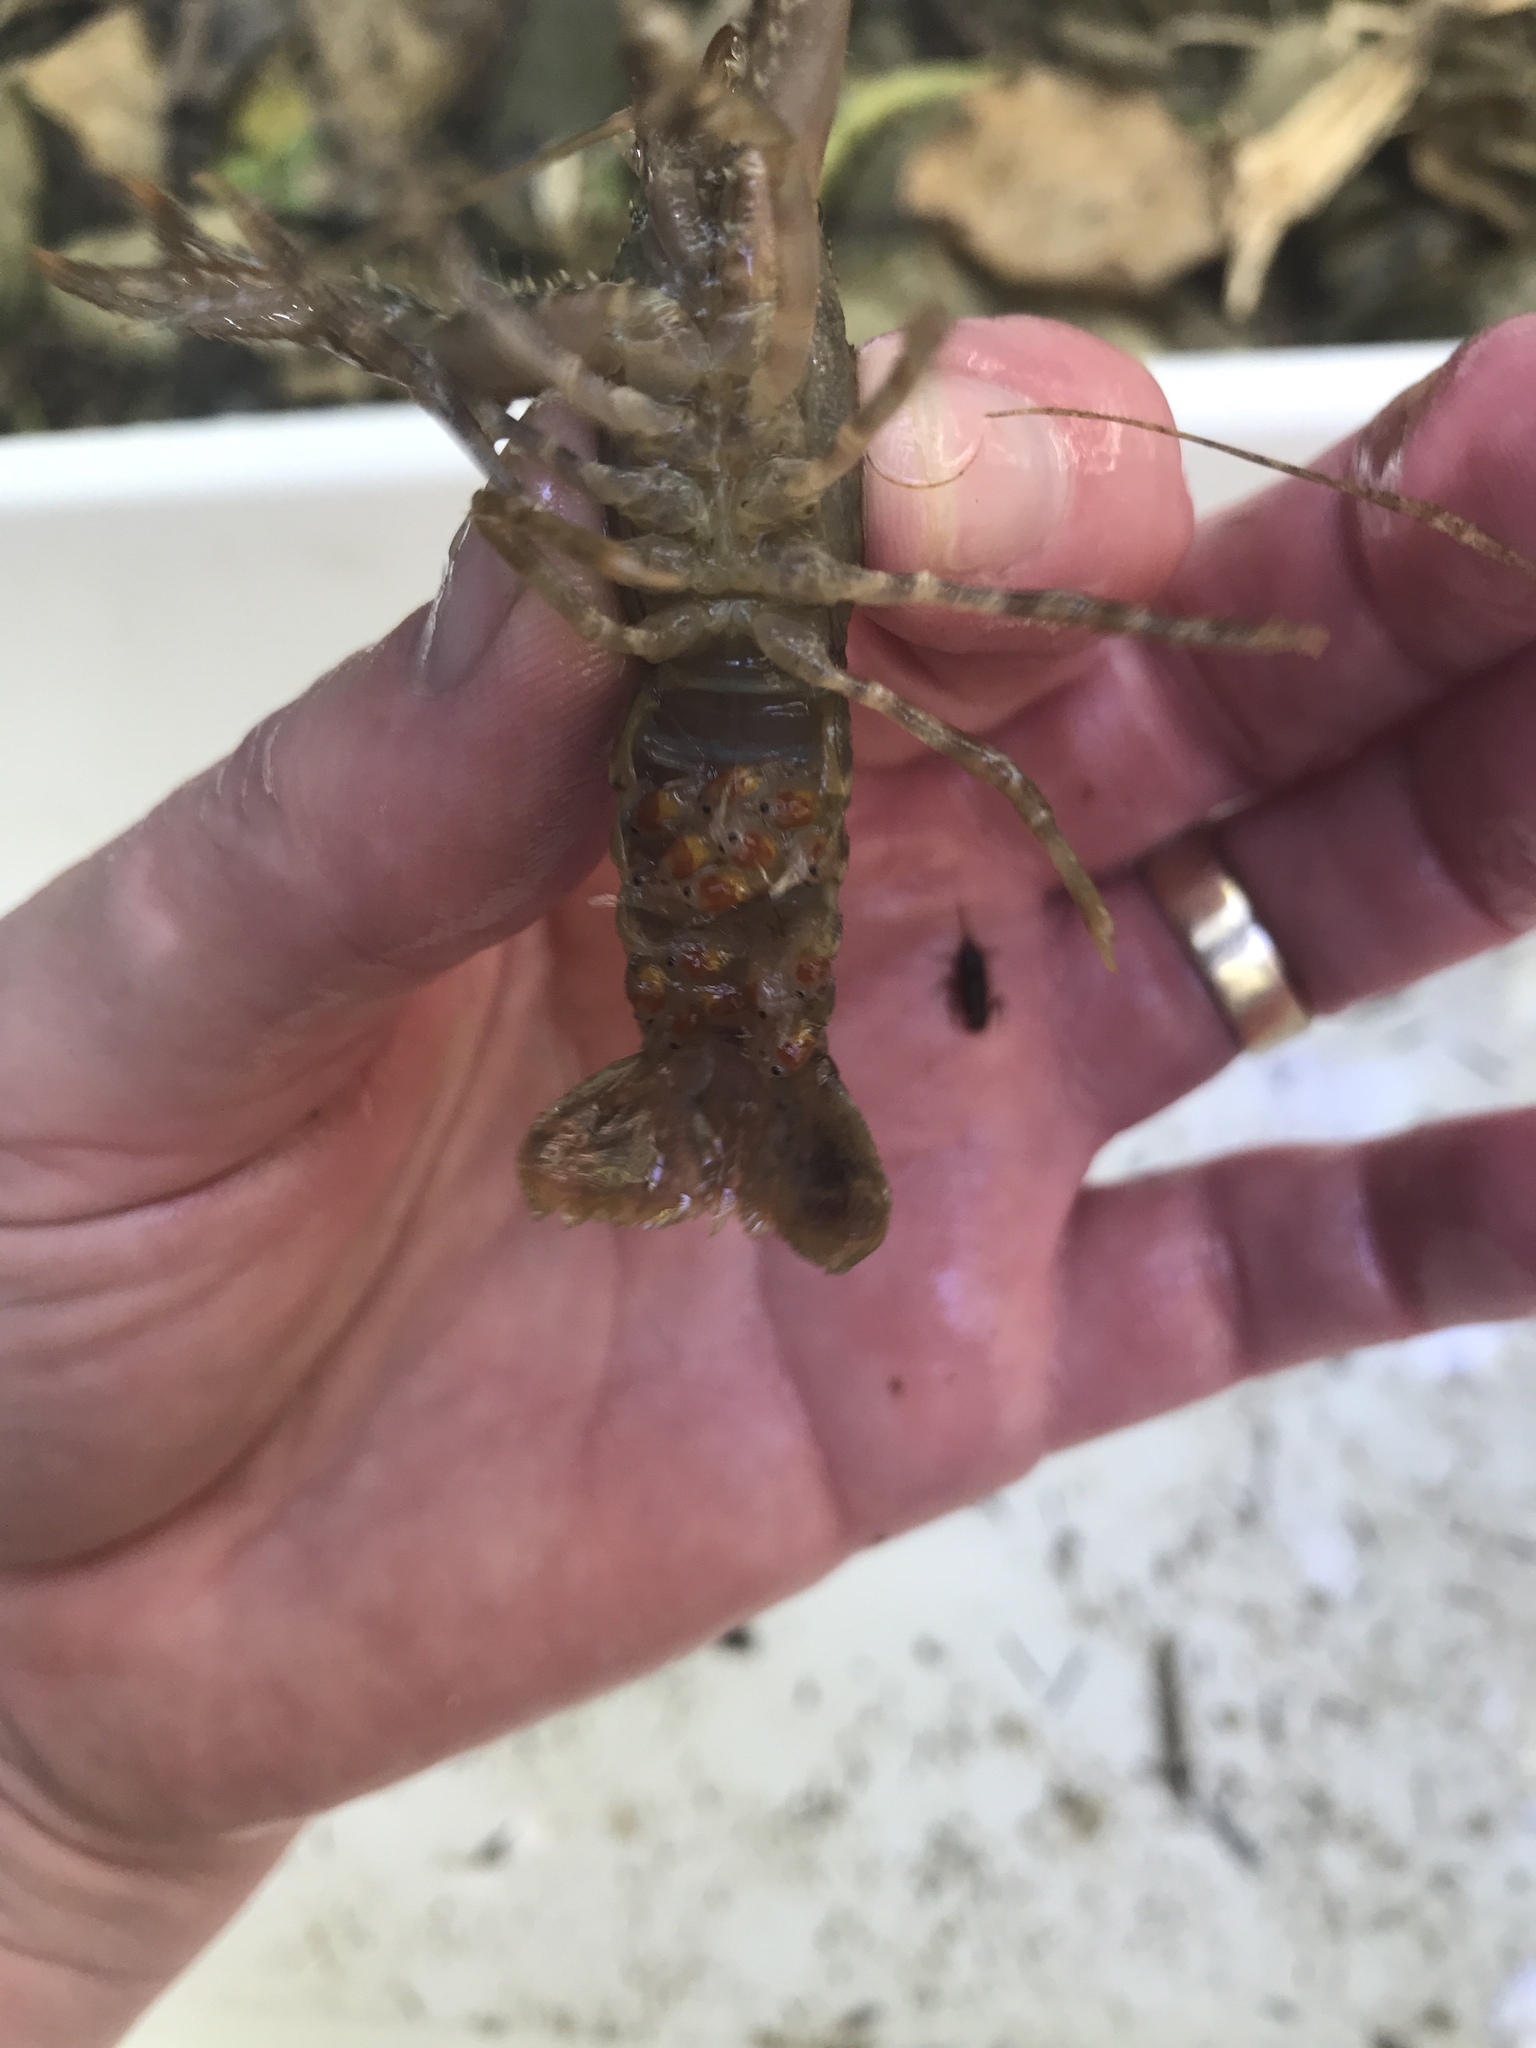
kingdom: Animalia
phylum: Arthropoda
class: Malacostraca
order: Decapoda
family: Parastacidae
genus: Paranephrops
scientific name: Paranephrops planifrons
